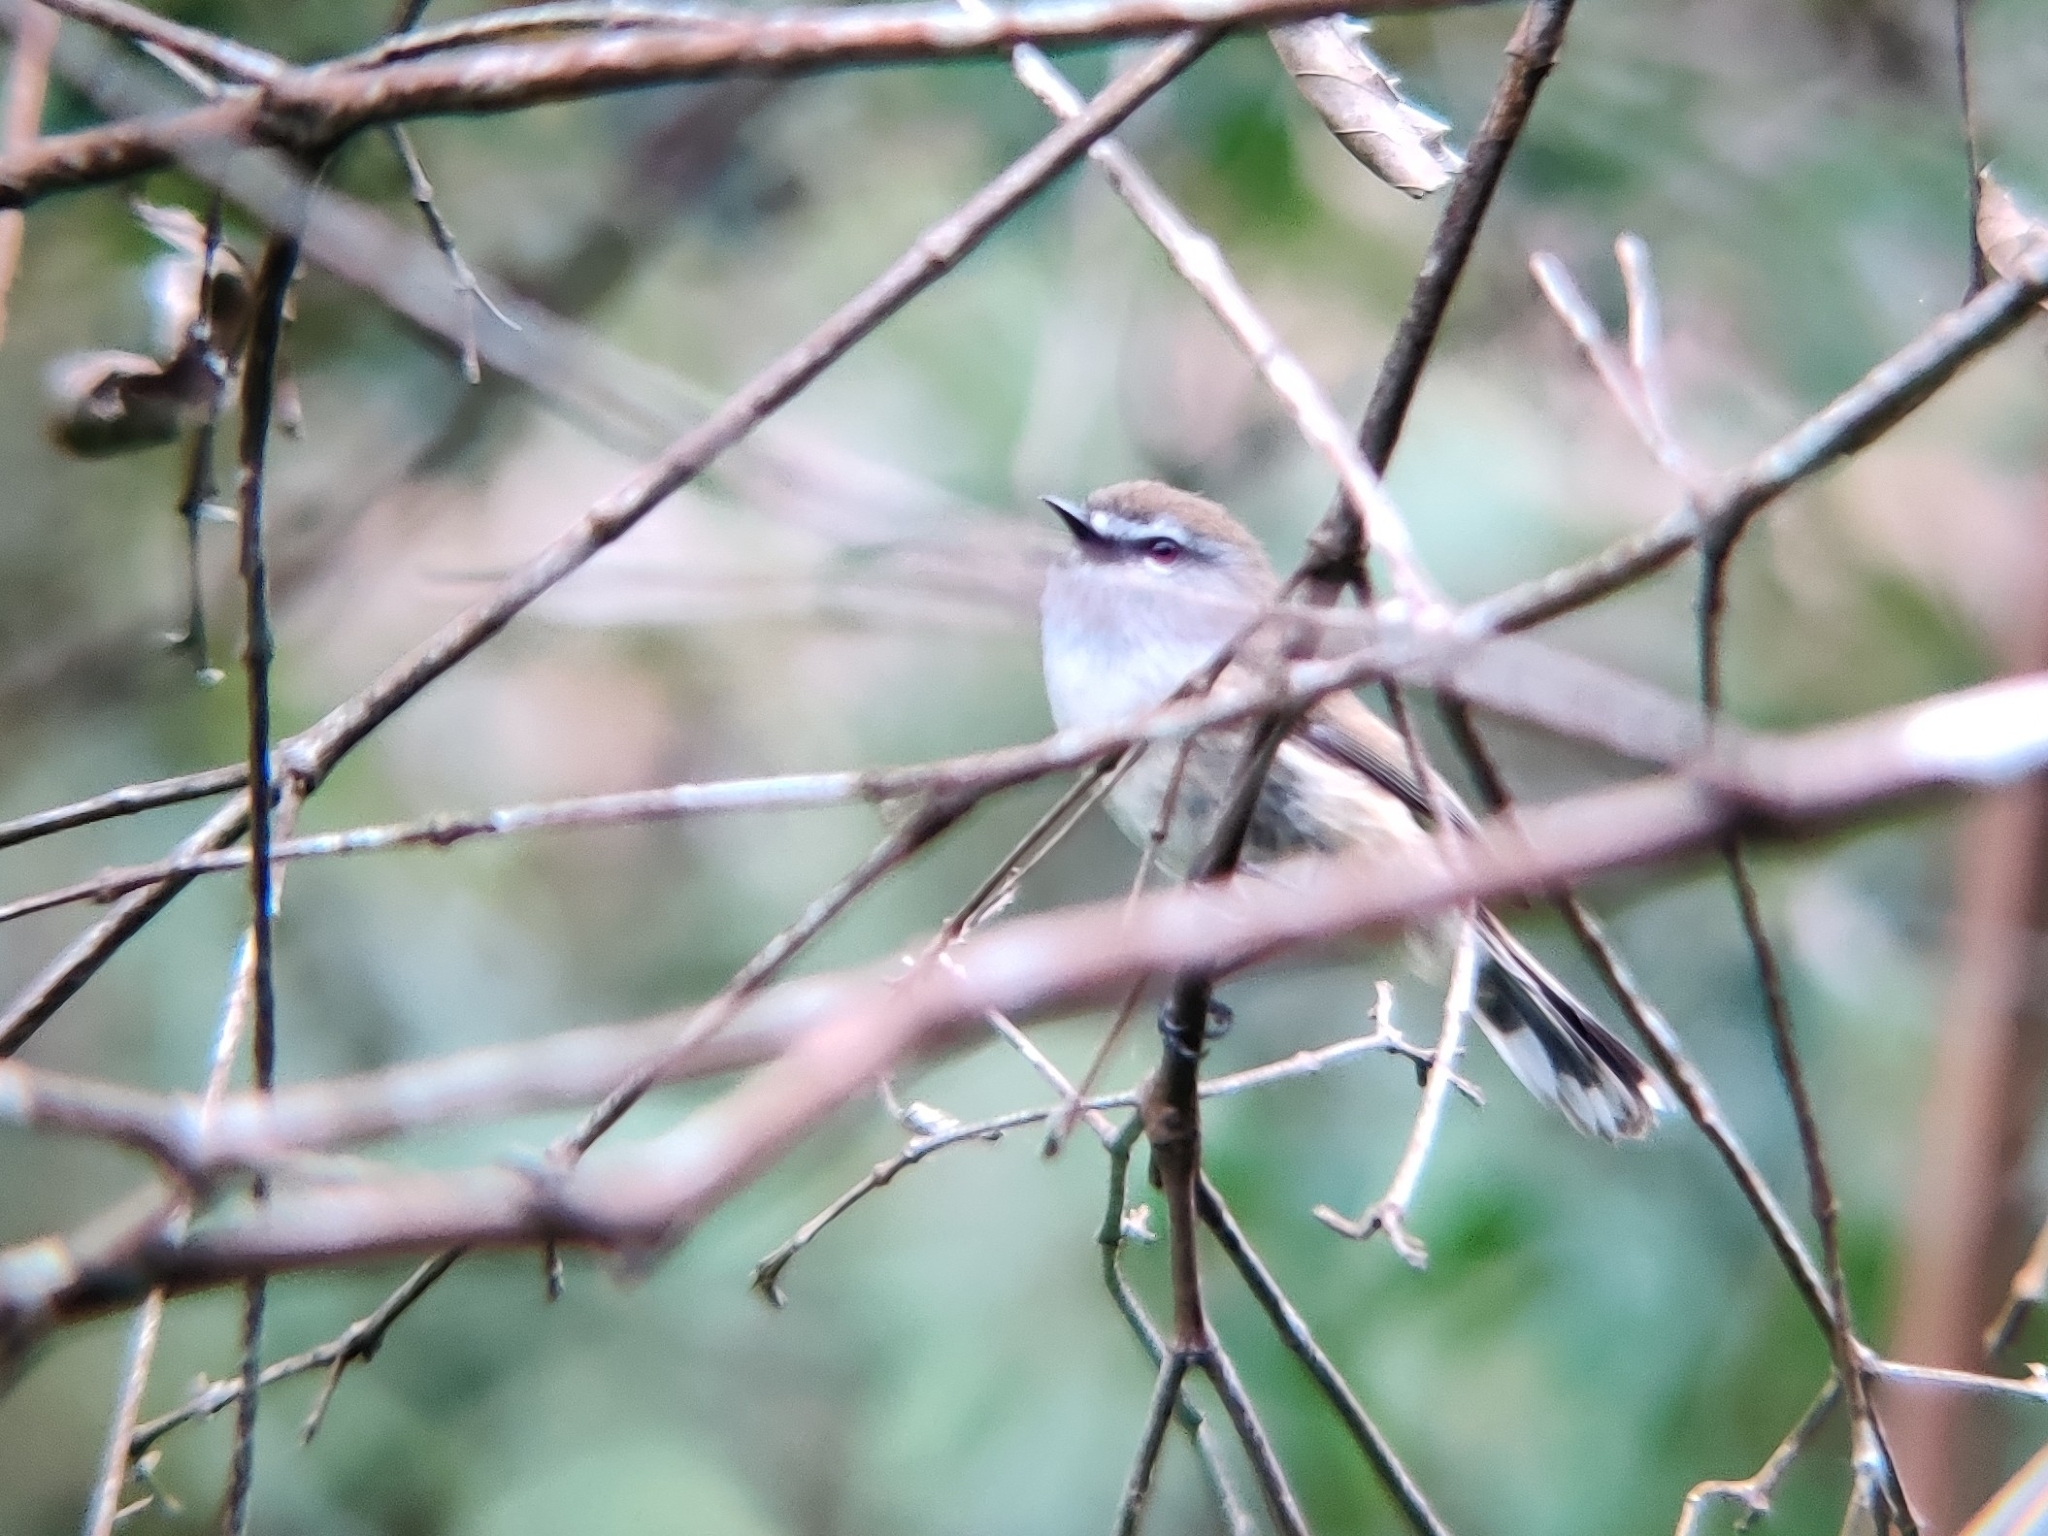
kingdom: Animalia
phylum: Chordata
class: Aves
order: Passeriformes
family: Acanthizidae
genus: Gerygone
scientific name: Gerygone mouki
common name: Brown gerygone
